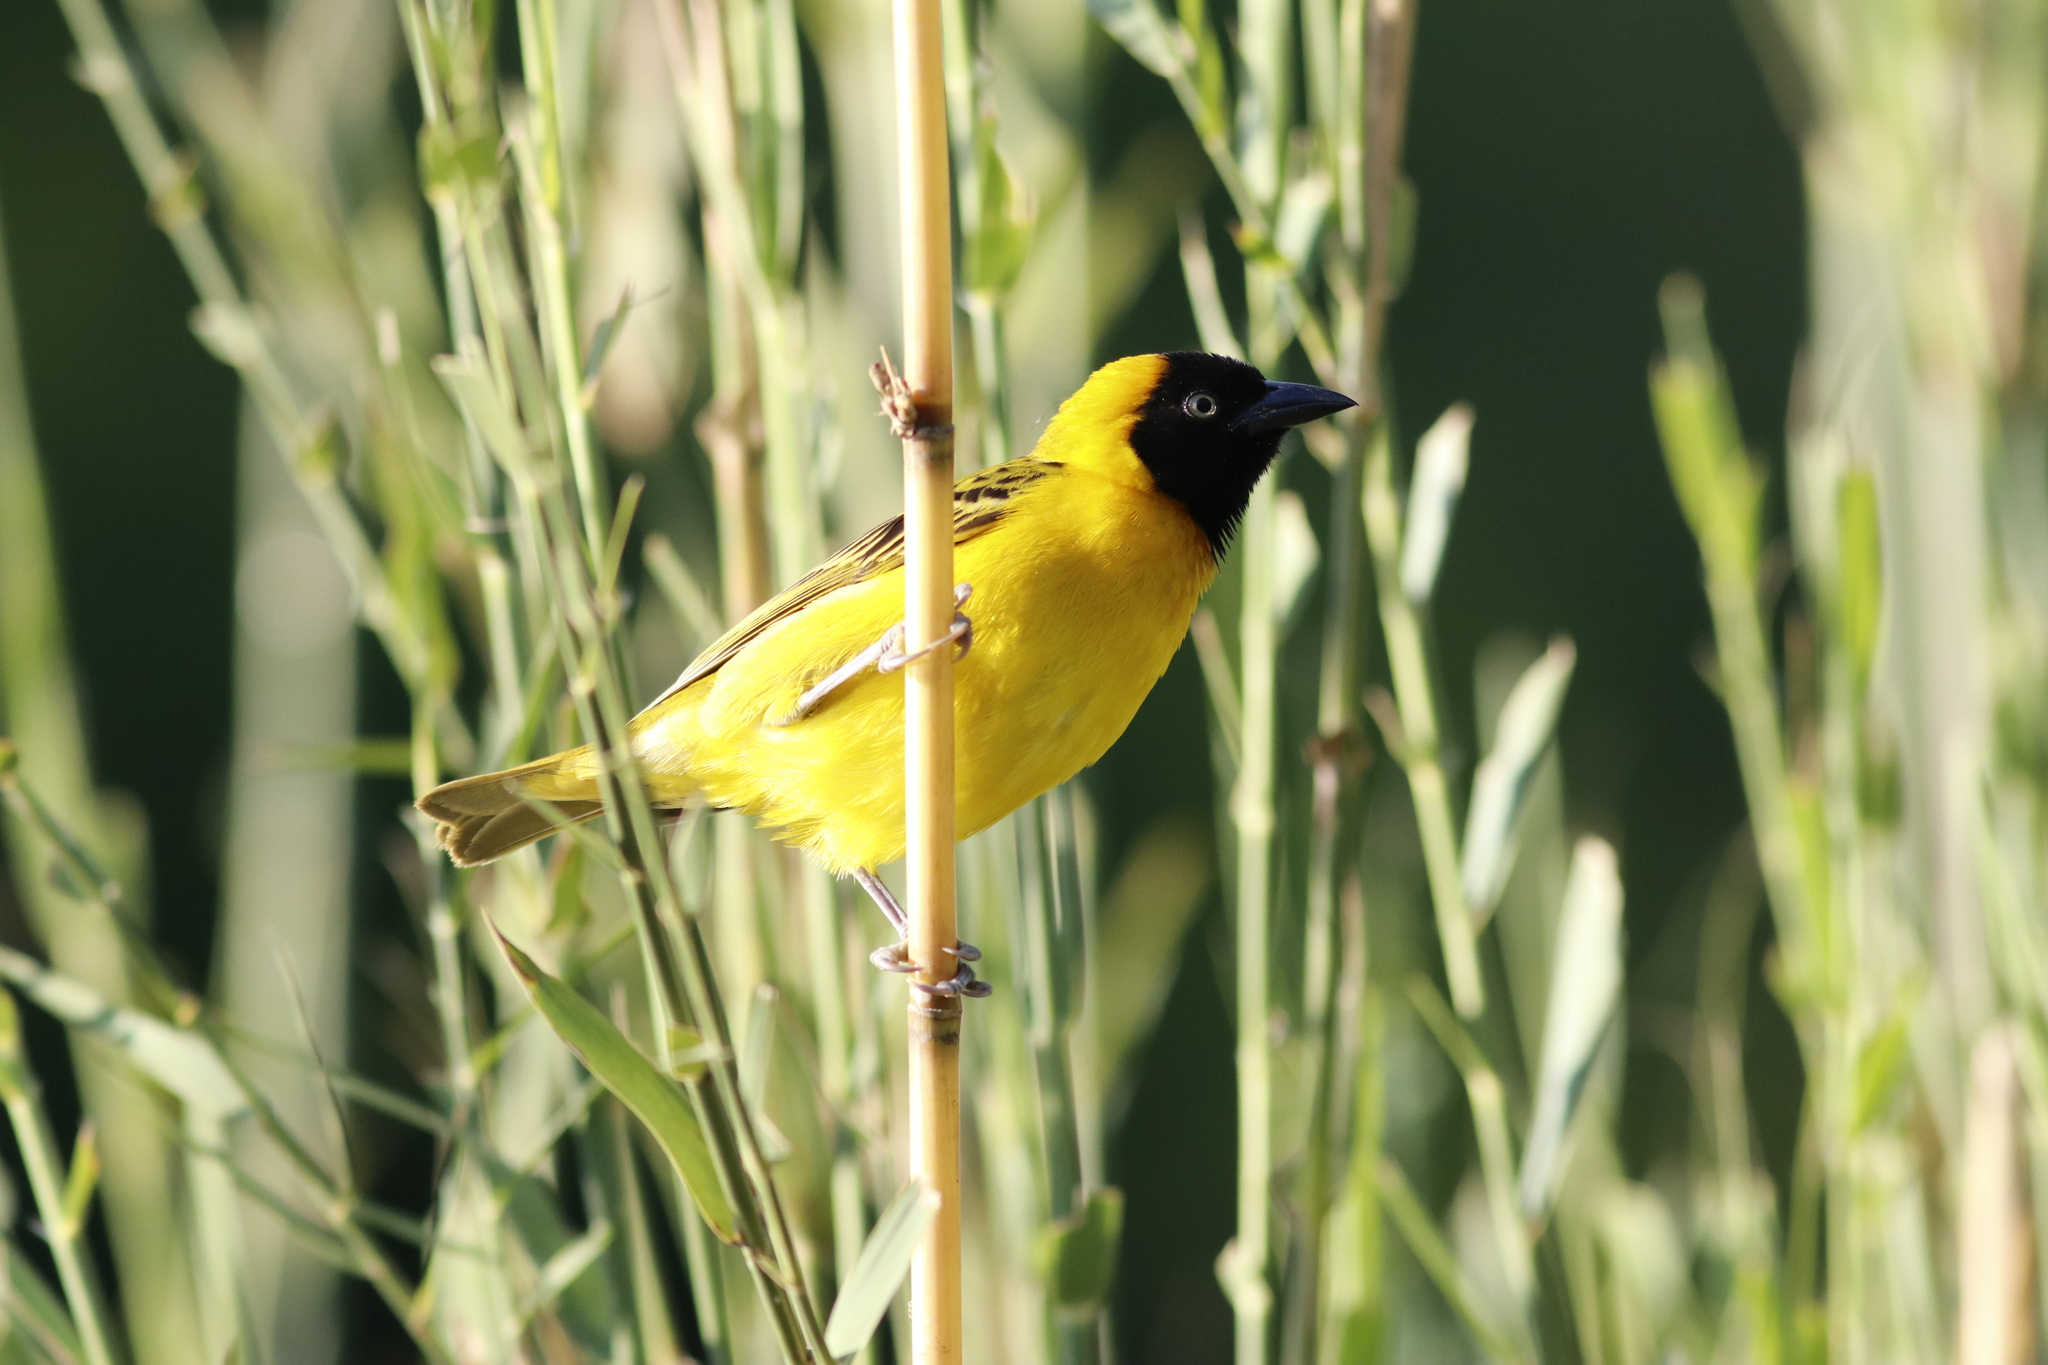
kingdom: Animalia
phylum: Chordata
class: Aves
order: Passeriformes
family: Ploceidae
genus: Ploceus
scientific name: Ploceus intermedius
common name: Lesser masked weaver
